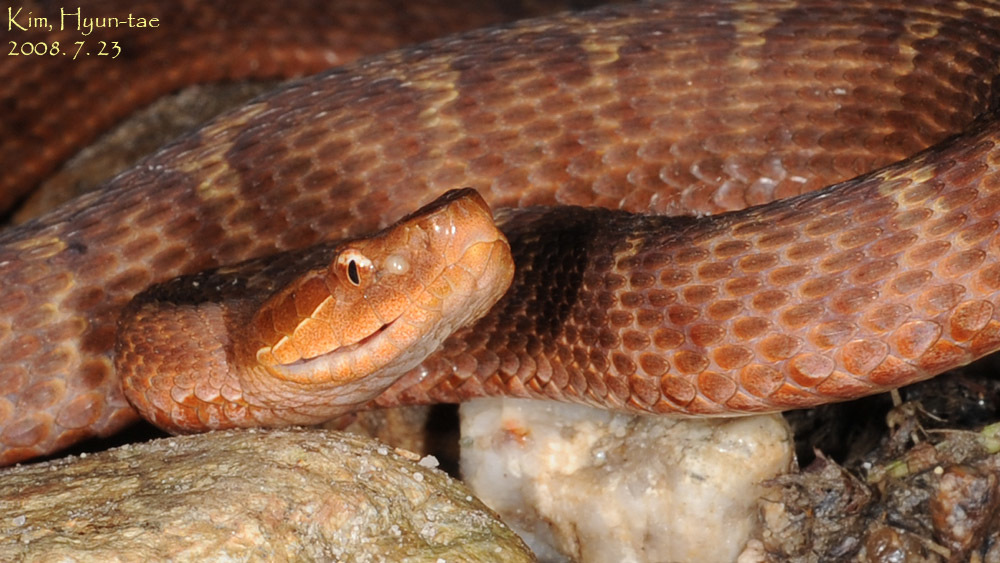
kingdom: Animalia
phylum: Chordata
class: Squamata
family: Viperidae
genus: Gloydius
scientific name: Gloydius ussuriensis
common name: Ussuri mamushi
